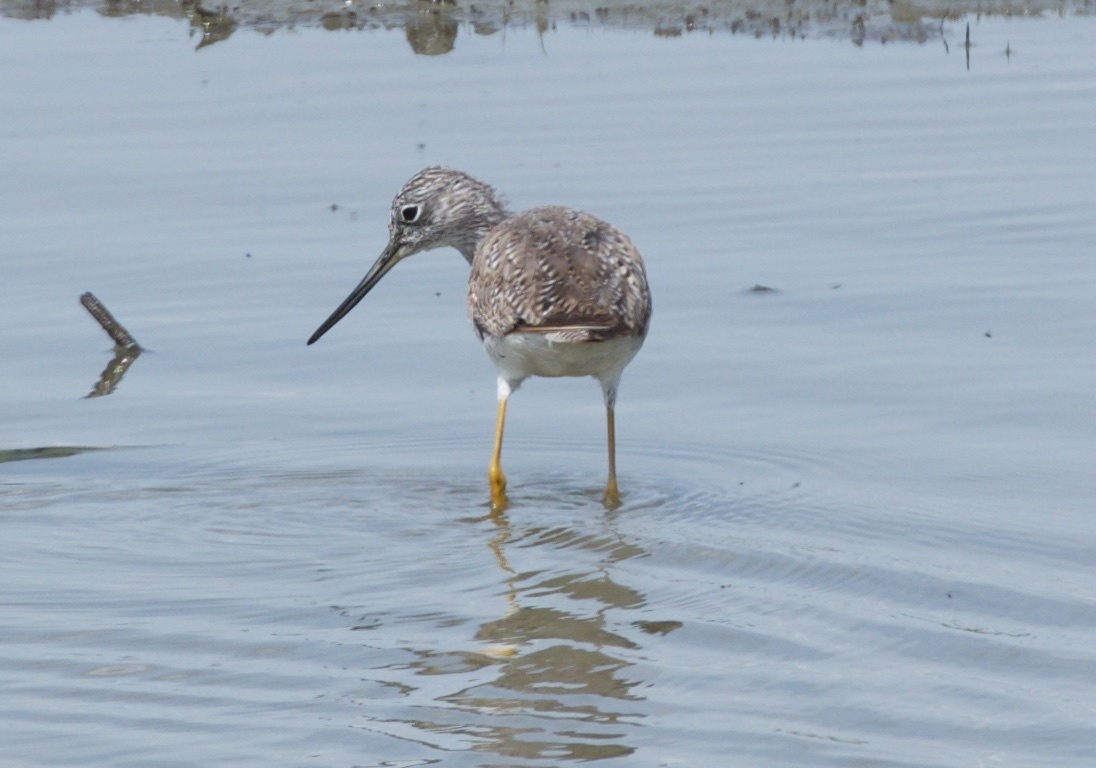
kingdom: Animalia
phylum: Chordata
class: Aves
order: Charadriiformes
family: Scolopacidae
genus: Tringa
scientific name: Tringa melanoleuca
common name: Greater yellowlegs
